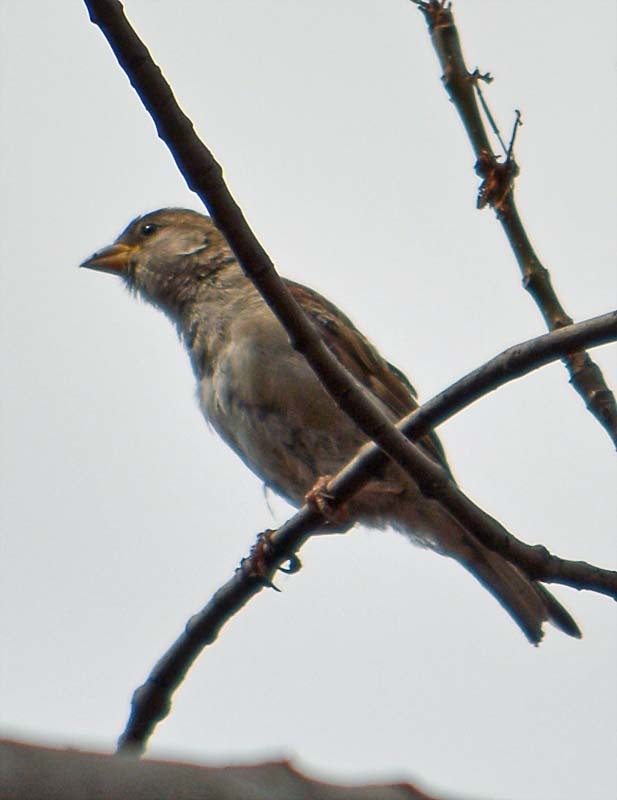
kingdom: Animalia
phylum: Chordata
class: Aves
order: Passeriformes
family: Passeridae
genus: Passer
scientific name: Passer domesticus
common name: House sparrow
